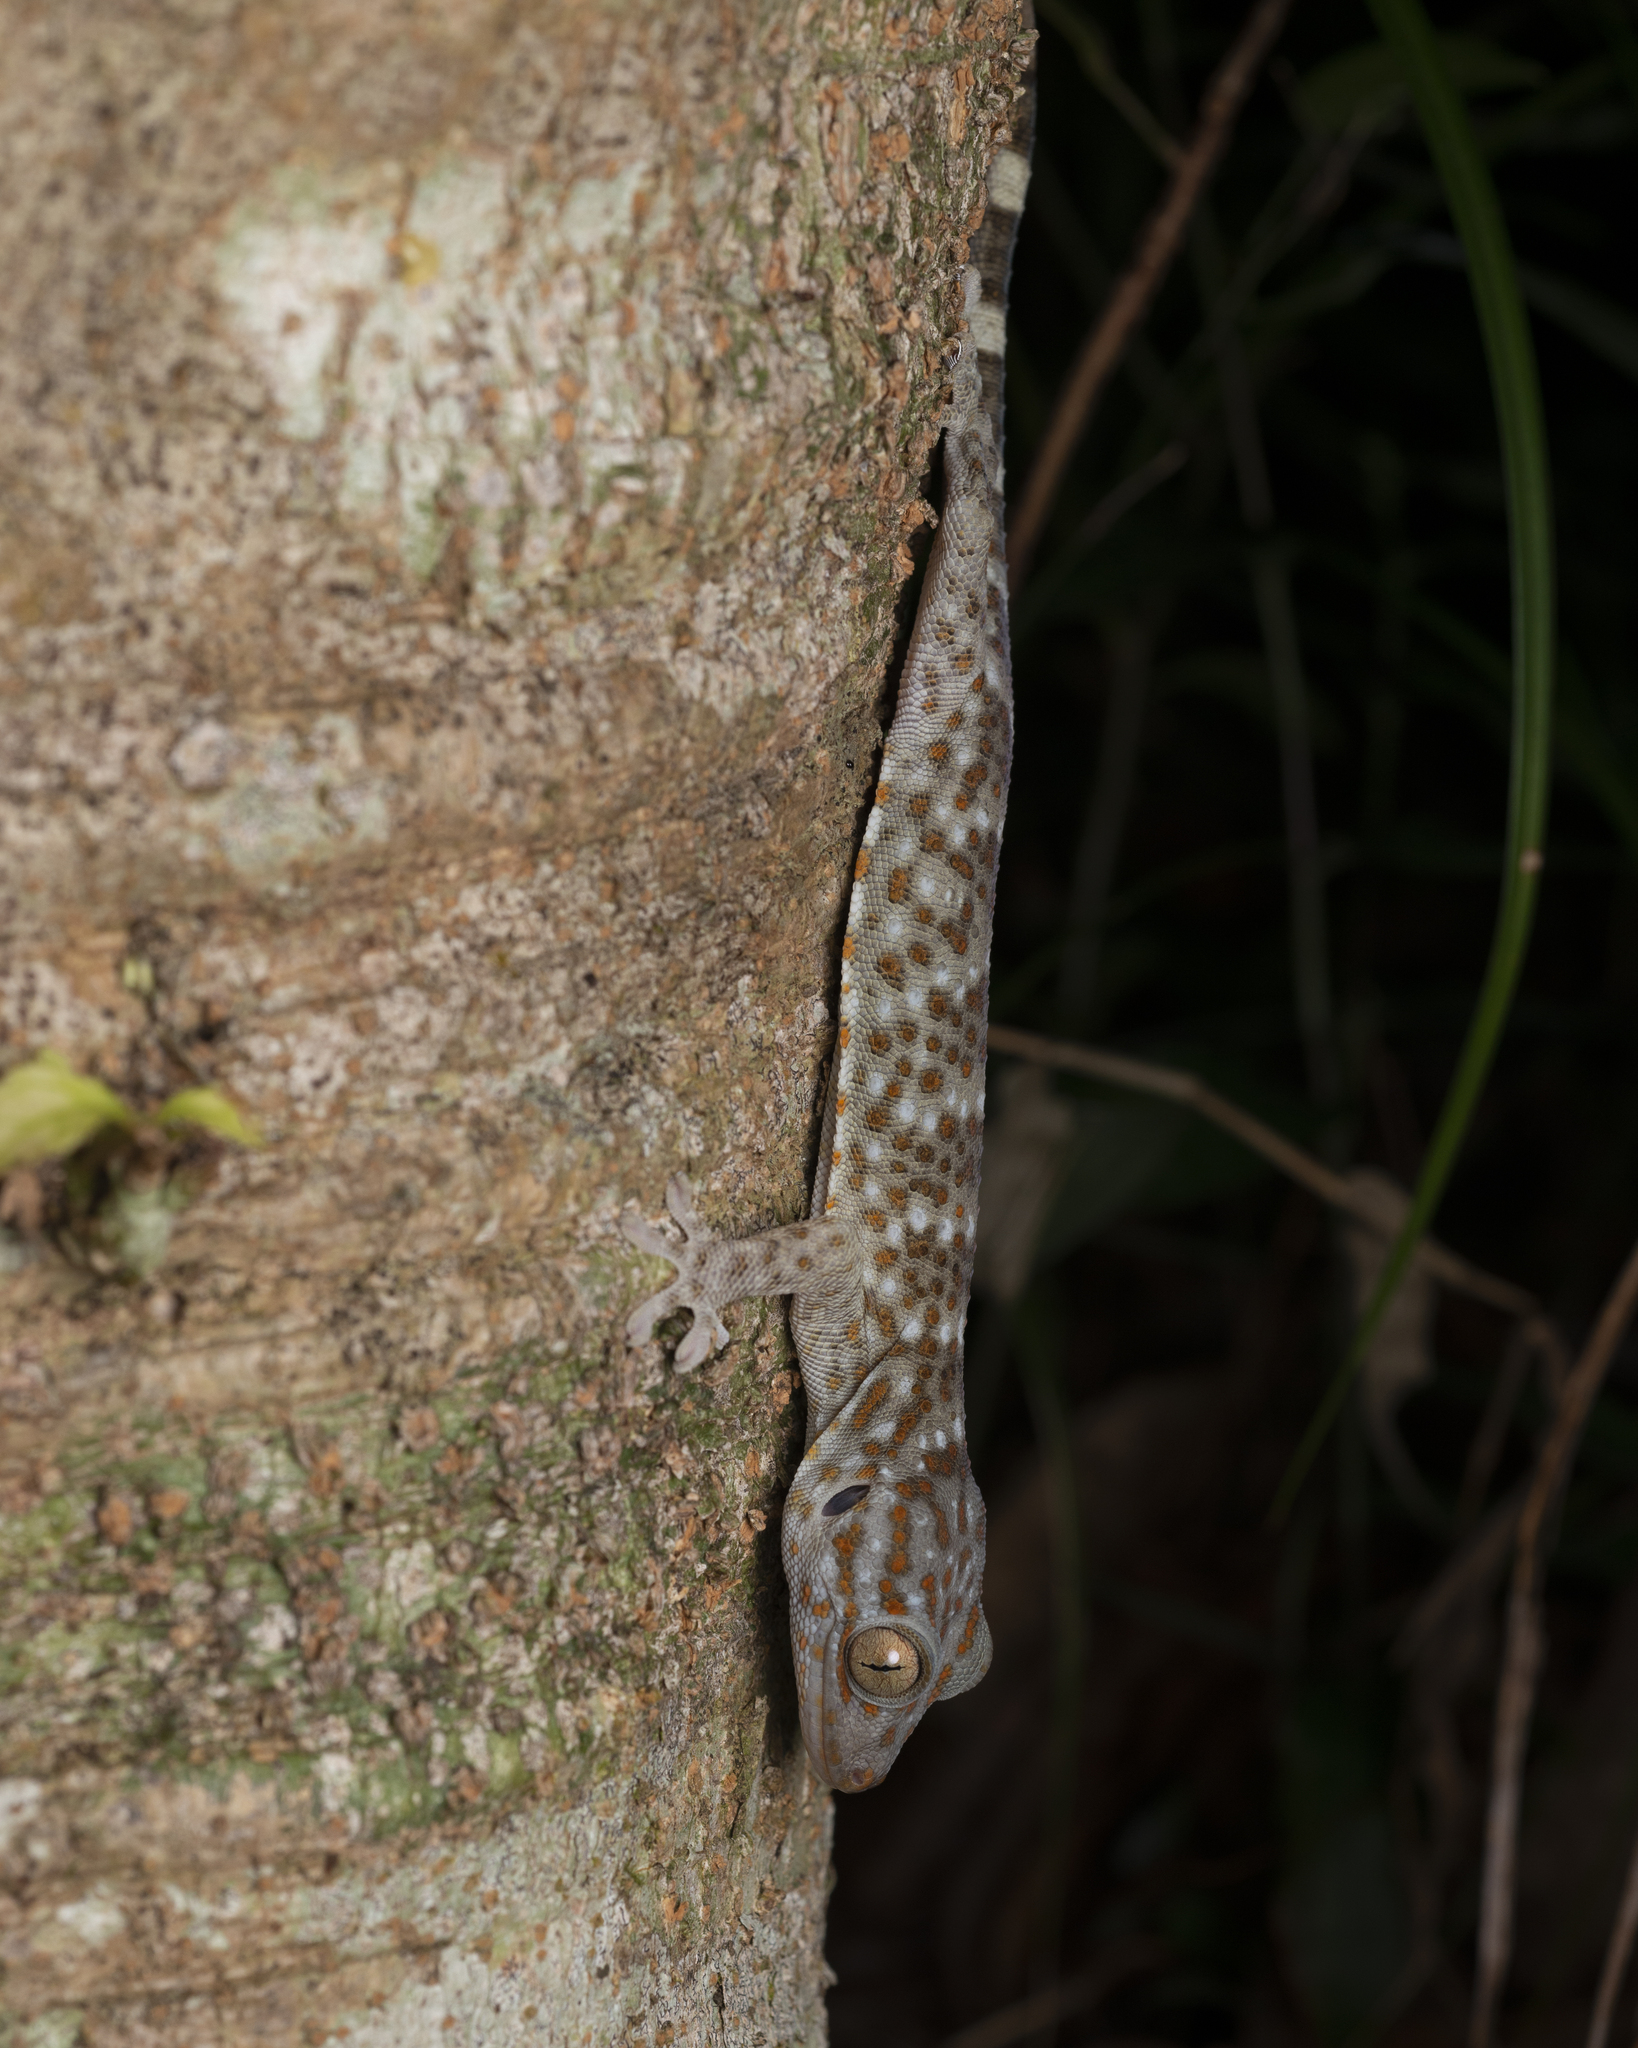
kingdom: Animalia
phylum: Chordata
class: Squamata
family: Gekkonidae
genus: Gekko
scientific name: Gekko reevesii
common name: Reeves’ tokay gecko
